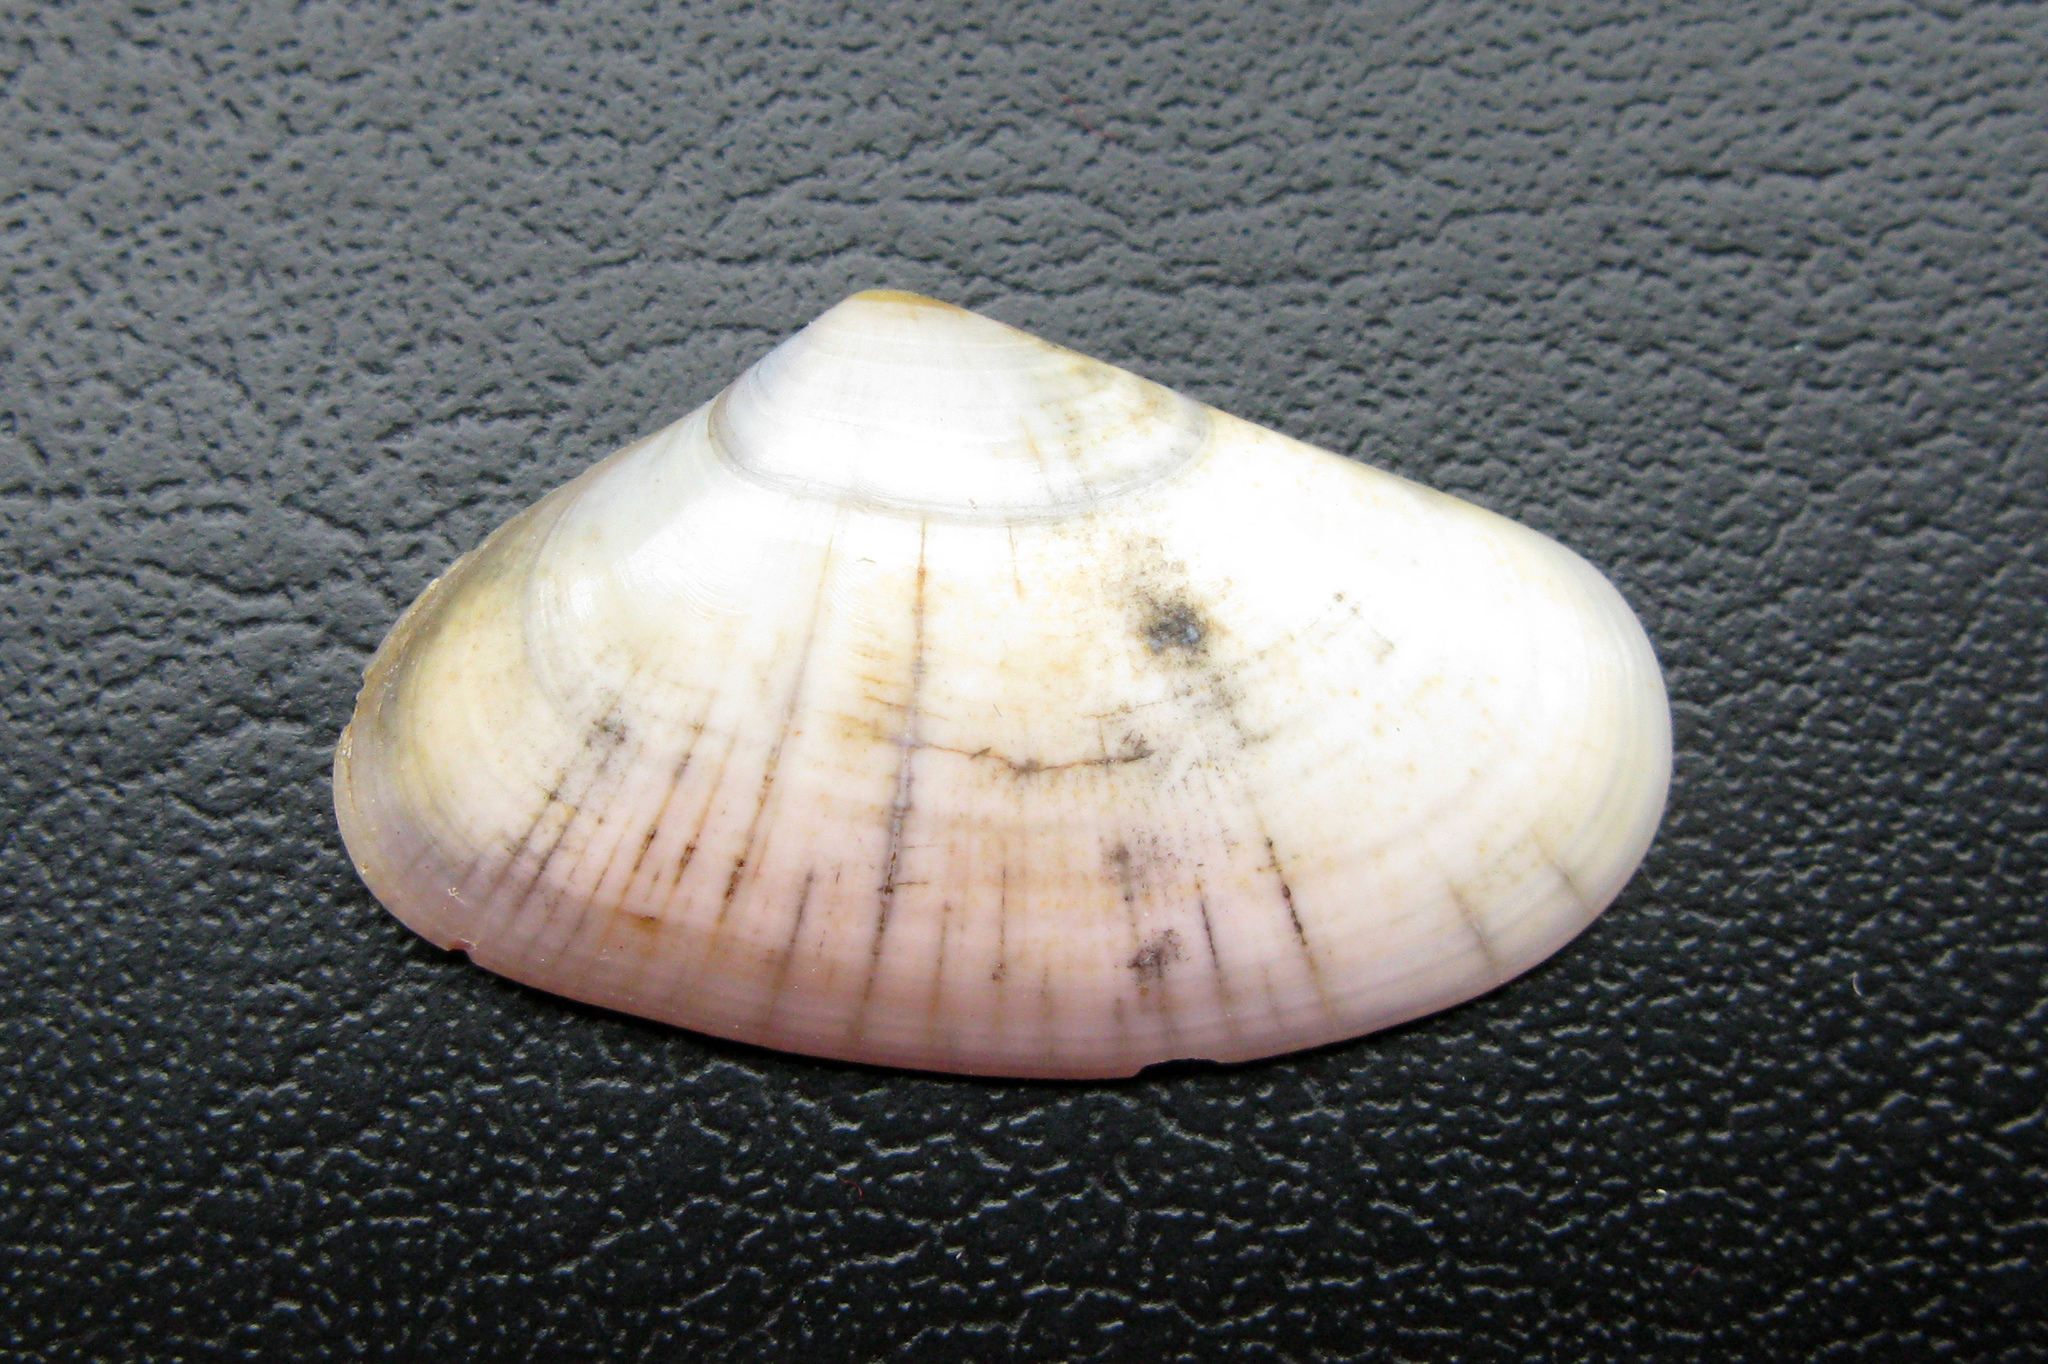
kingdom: Animalia
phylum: Mollusca
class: Bivalvia
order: Cardiida
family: Donacidae
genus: Donax
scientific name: Donax trunculus
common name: Truncate donax
